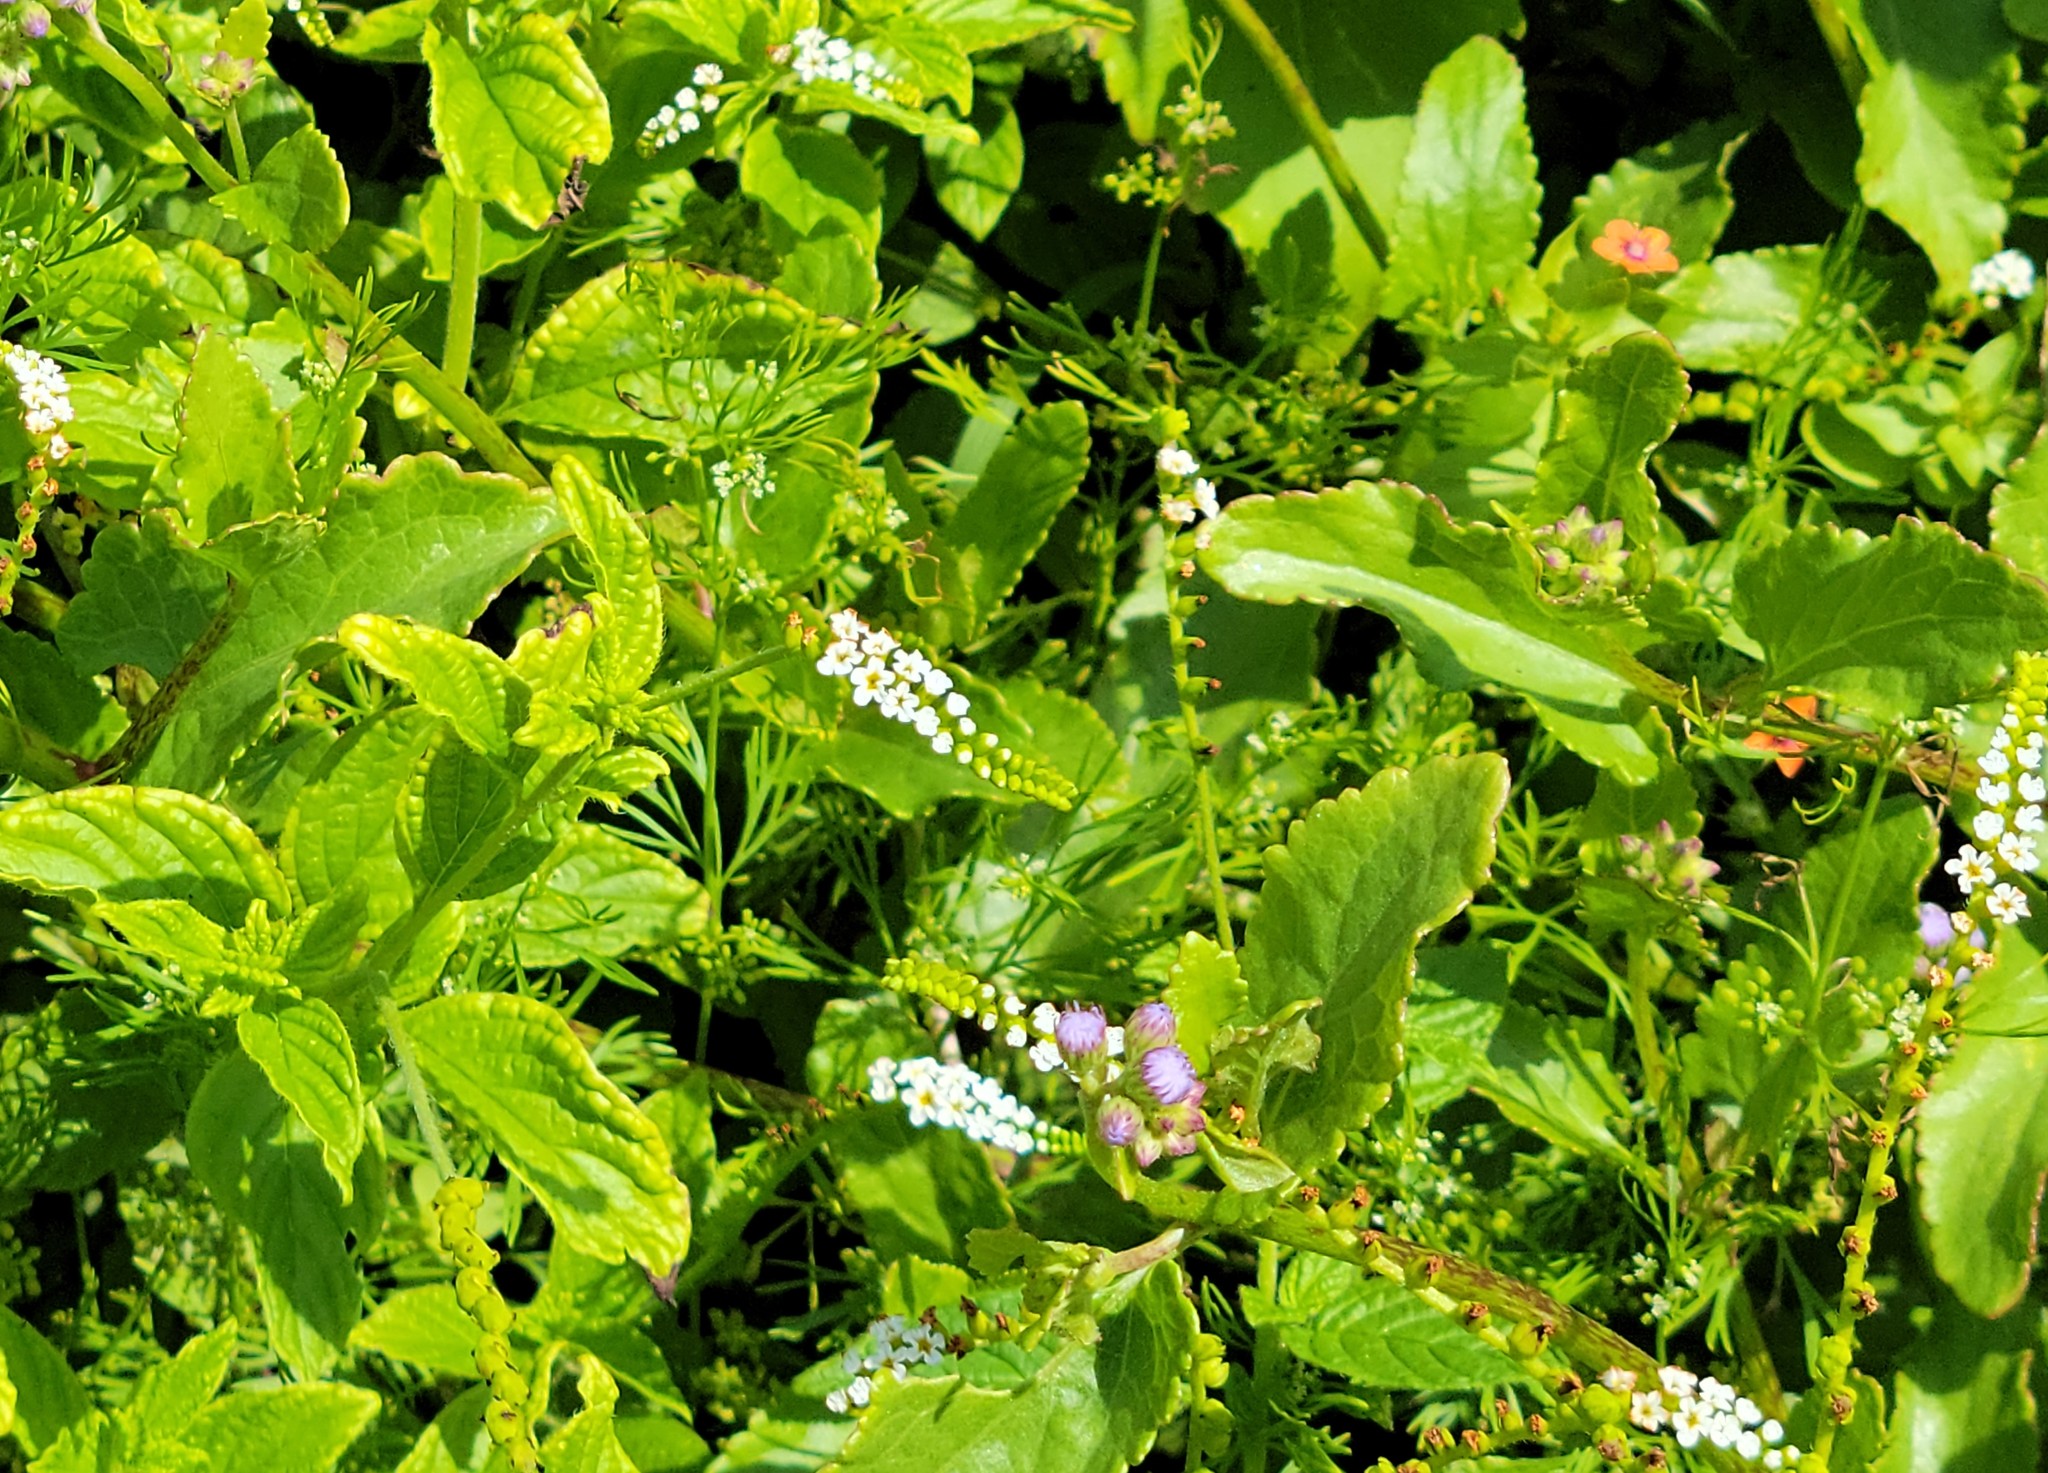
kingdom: Plantae
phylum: Tracheophyta
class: Magnoliopsida
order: Boraginales
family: Heliotropiaceae
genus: Heliotropium
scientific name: Heliotropium angiospermum
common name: Eye bright
